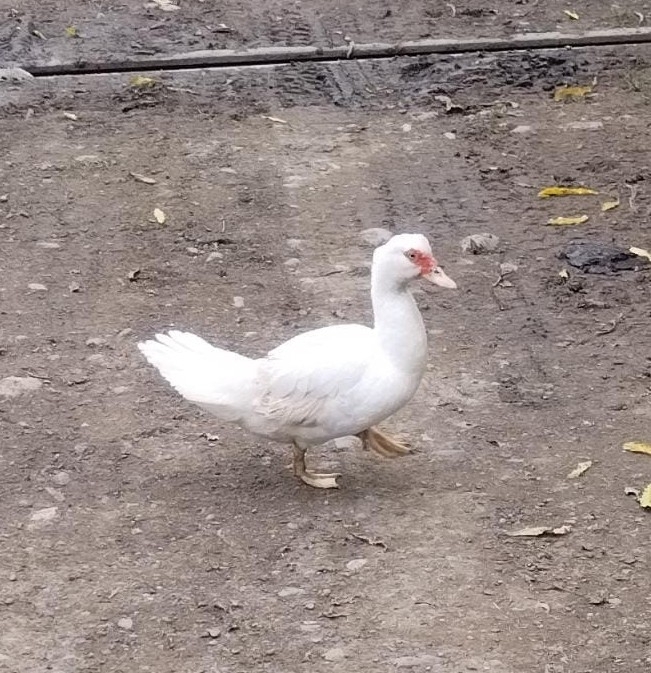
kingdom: Animalia
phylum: Chordata
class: Aves
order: Anseriformes
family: Anatidae
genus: Cairina
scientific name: Cairina moschata
